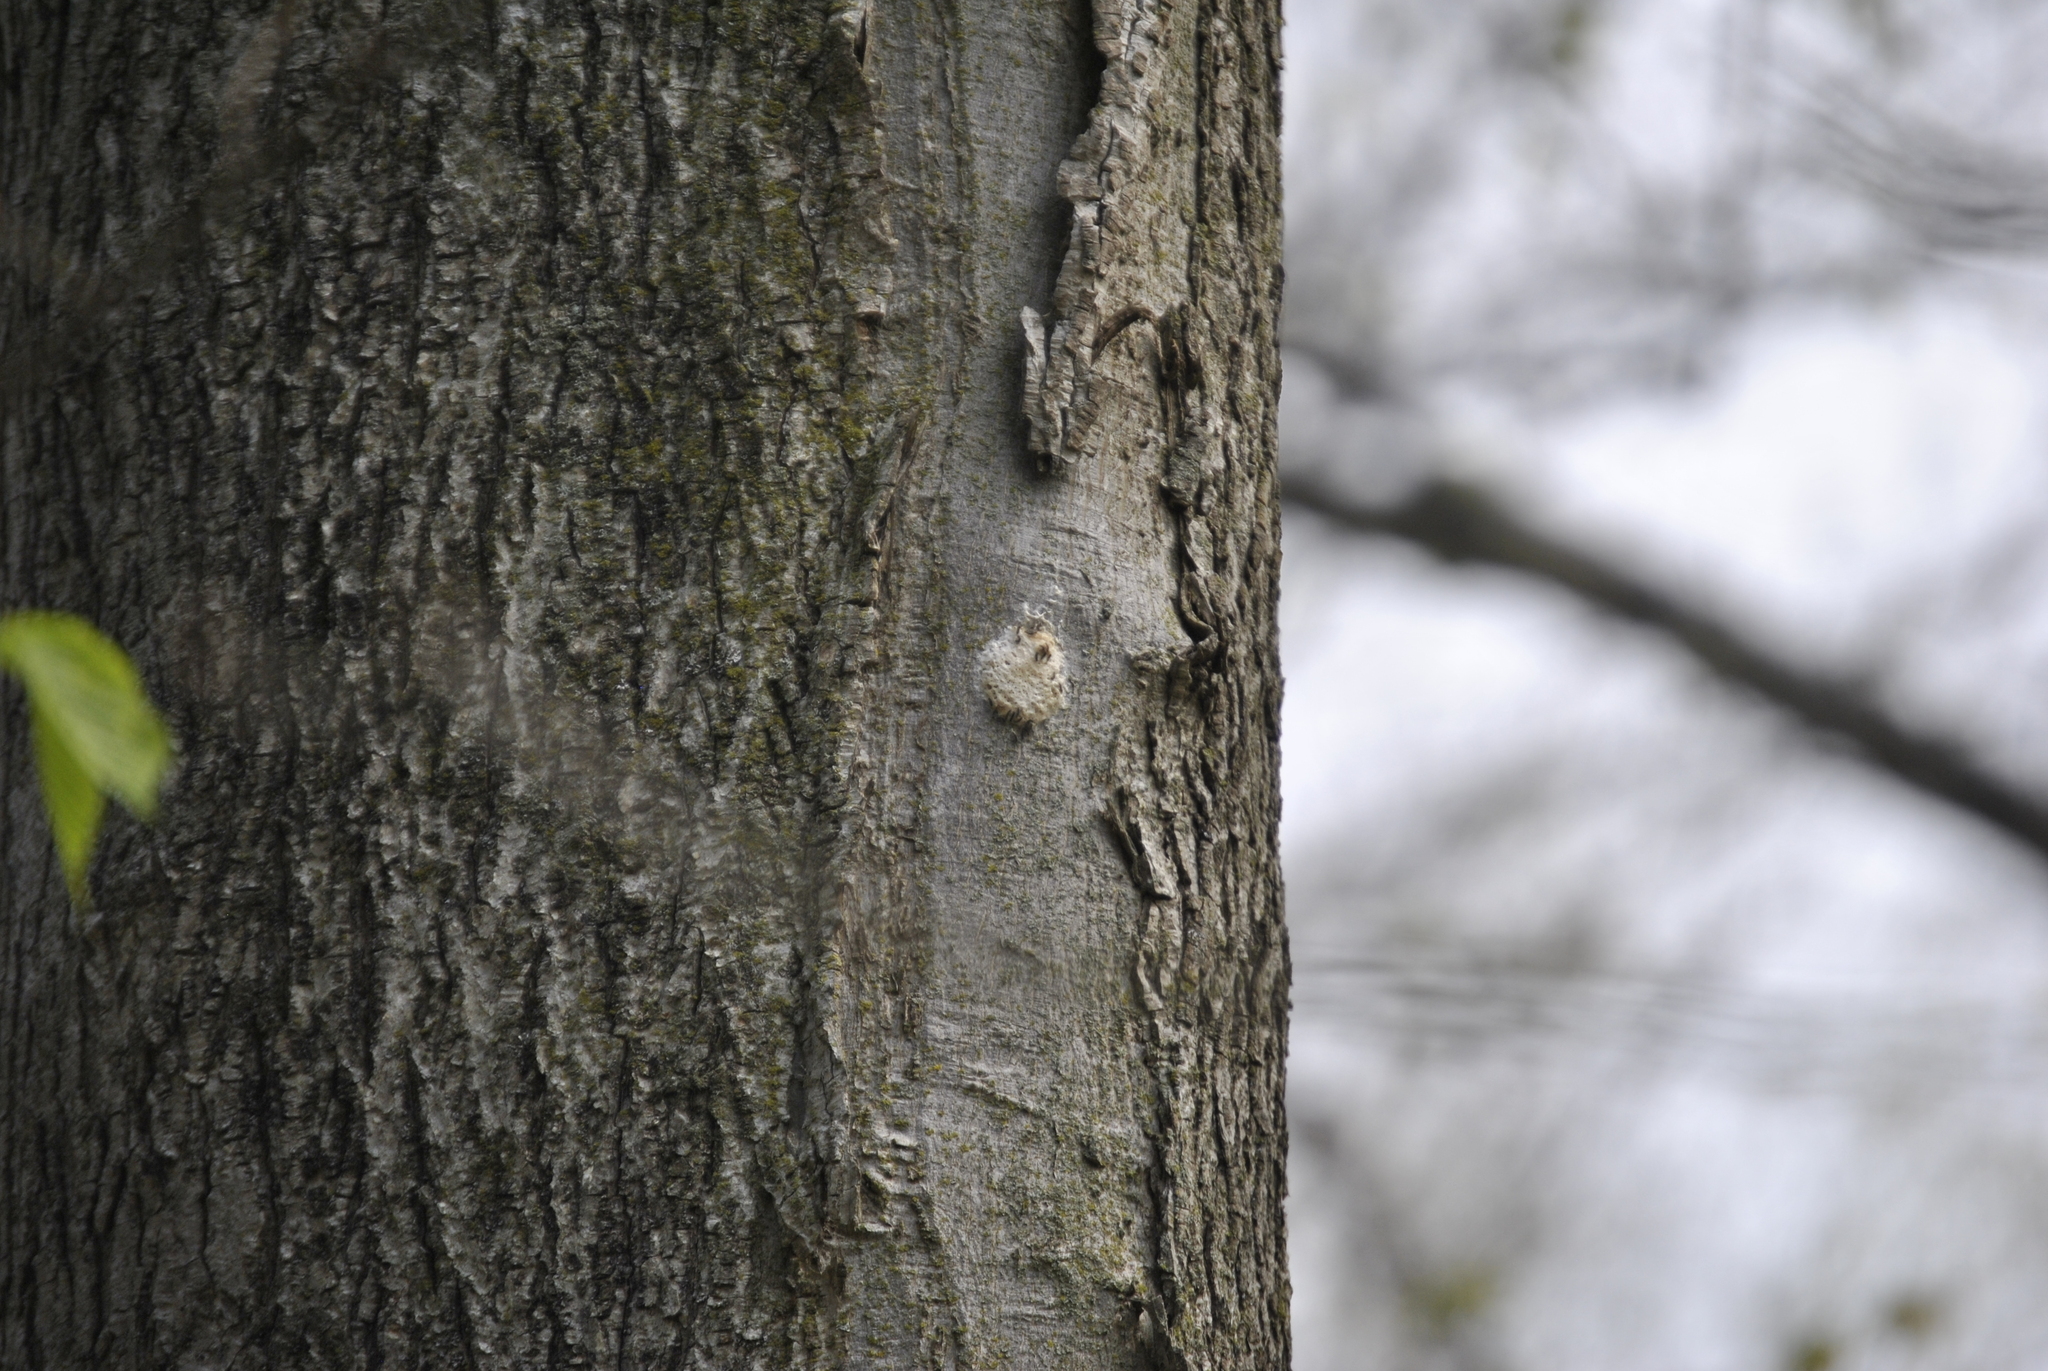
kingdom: Animalia
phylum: Arthropoda
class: Insecta
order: Lepidoptera
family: Erebidae
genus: Lymantria
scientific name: Lymantria dispar
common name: Gypsy moth
